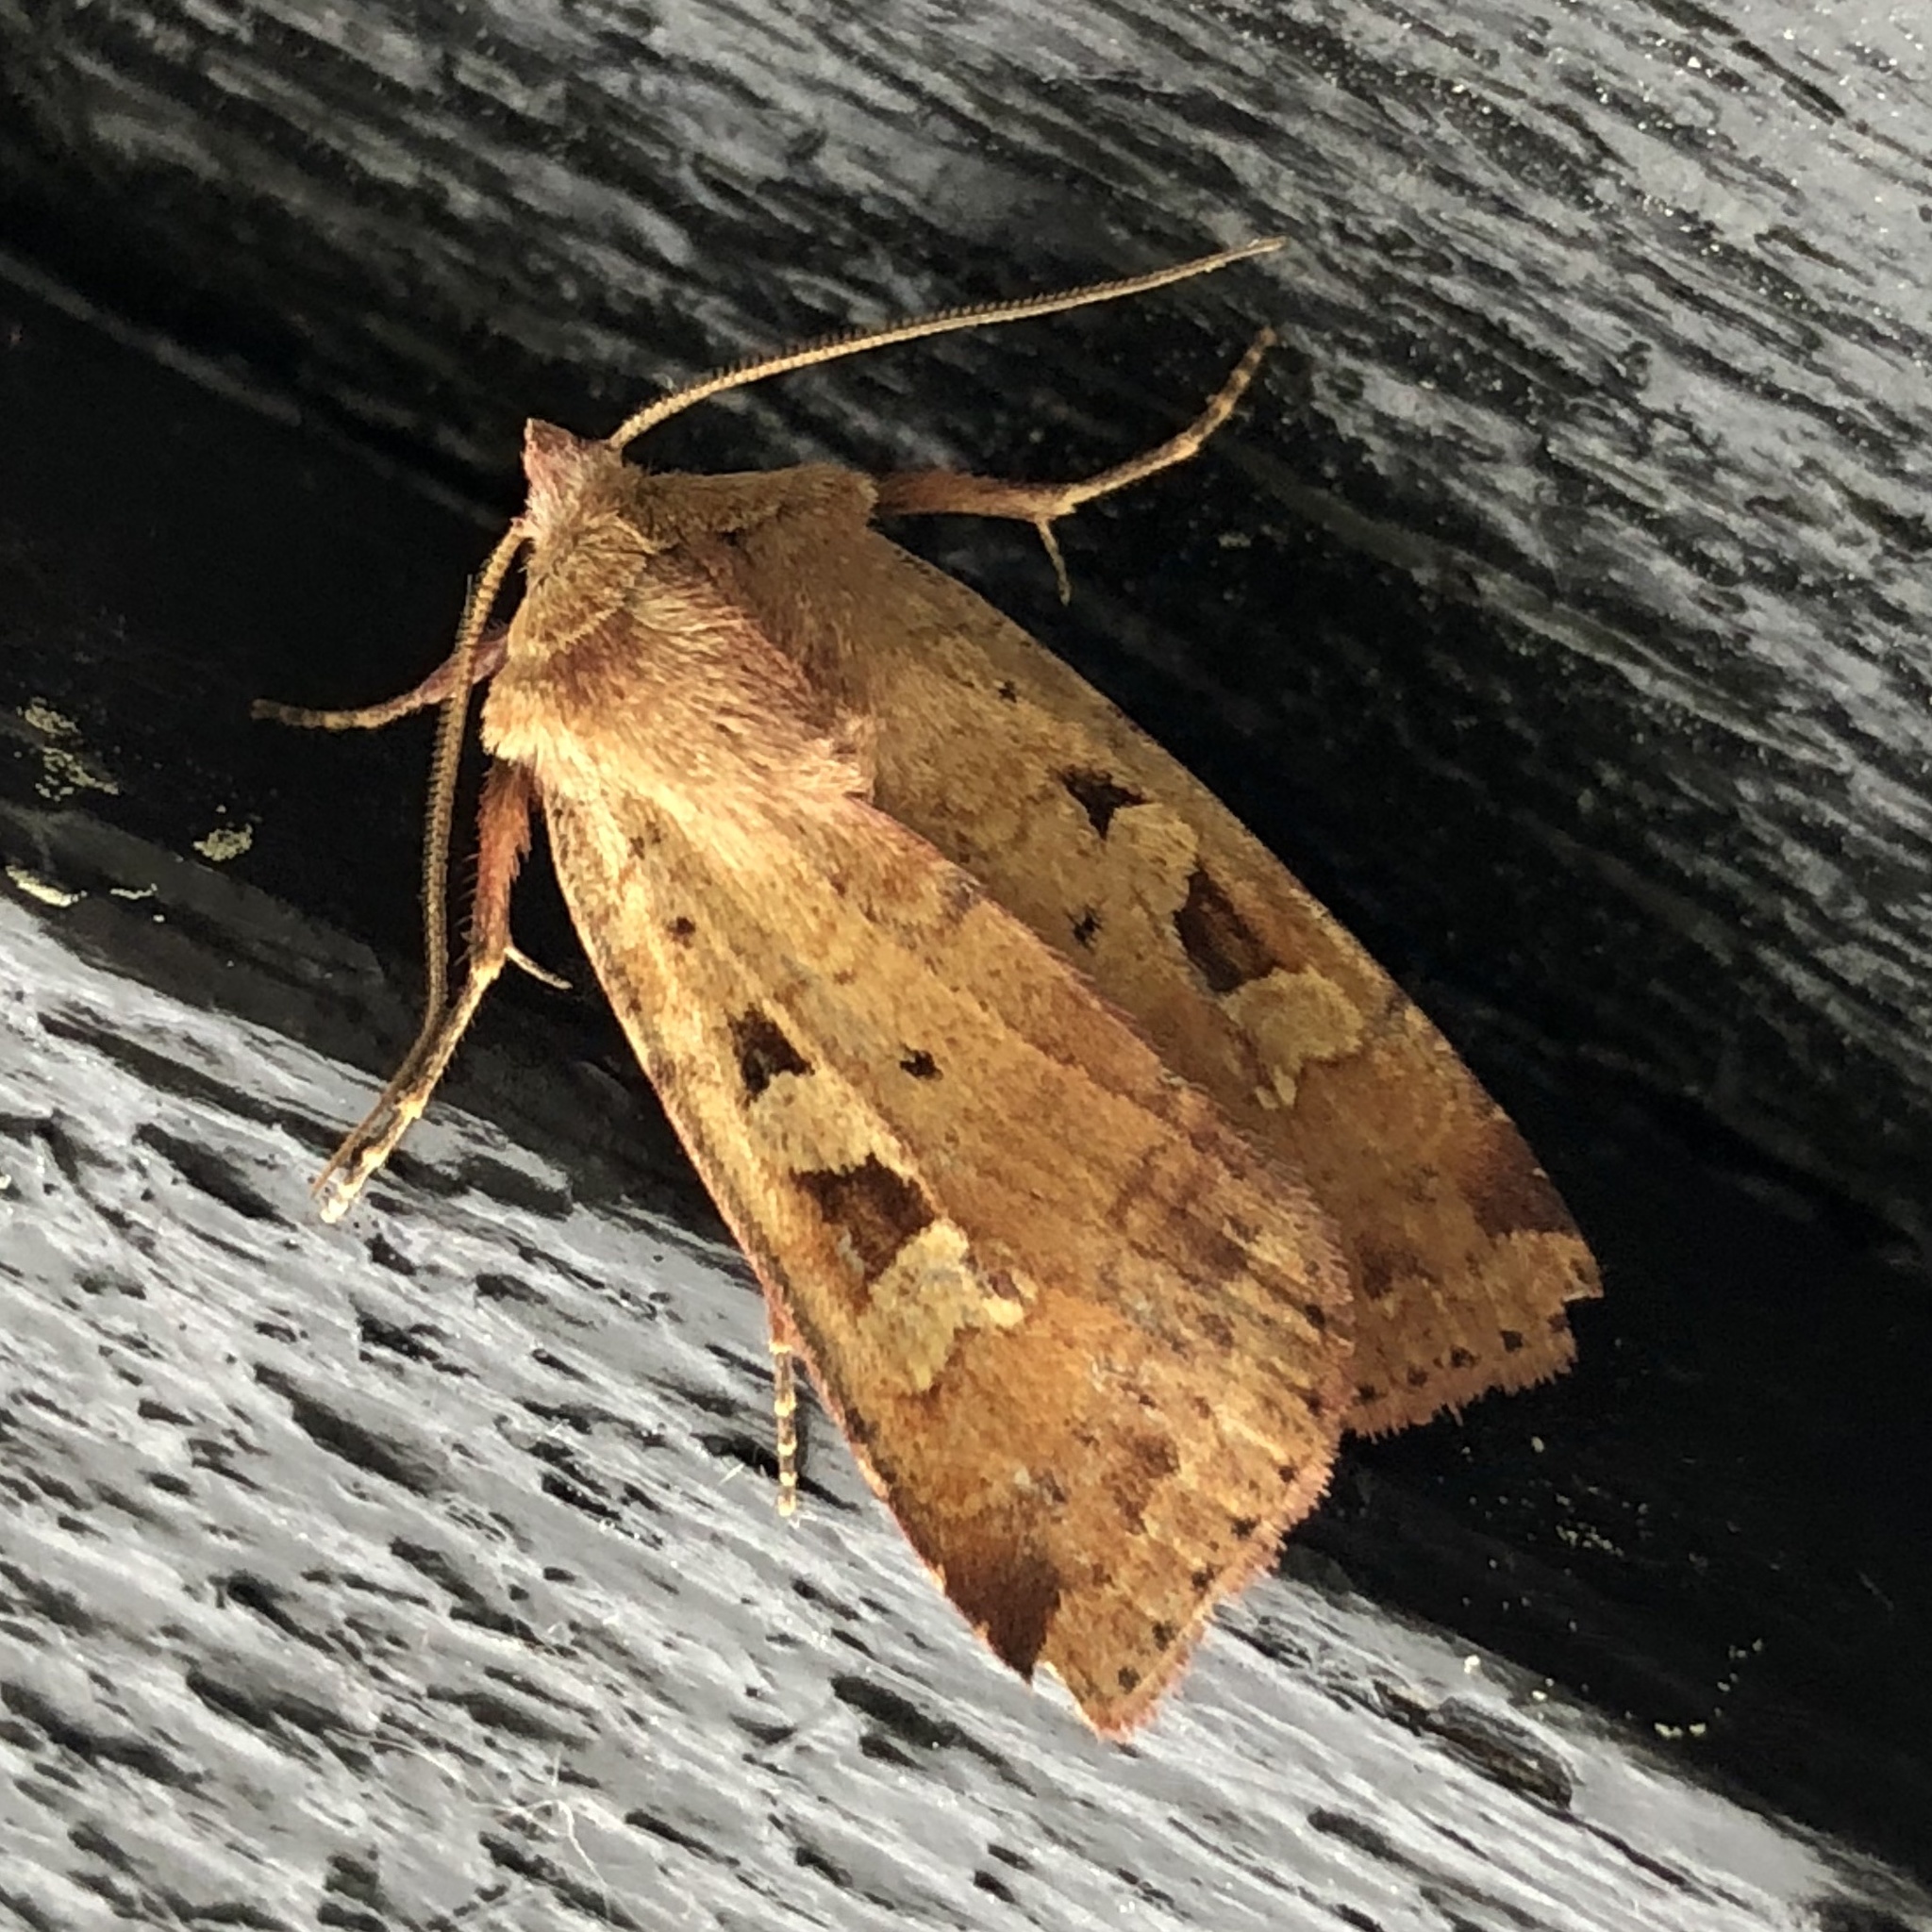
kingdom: Animalia
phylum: Arthropoda
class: Insecta
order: Lepidoptera
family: Noctuidae
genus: Diarsia
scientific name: Diarsia mendica
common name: Ingrailed clay
